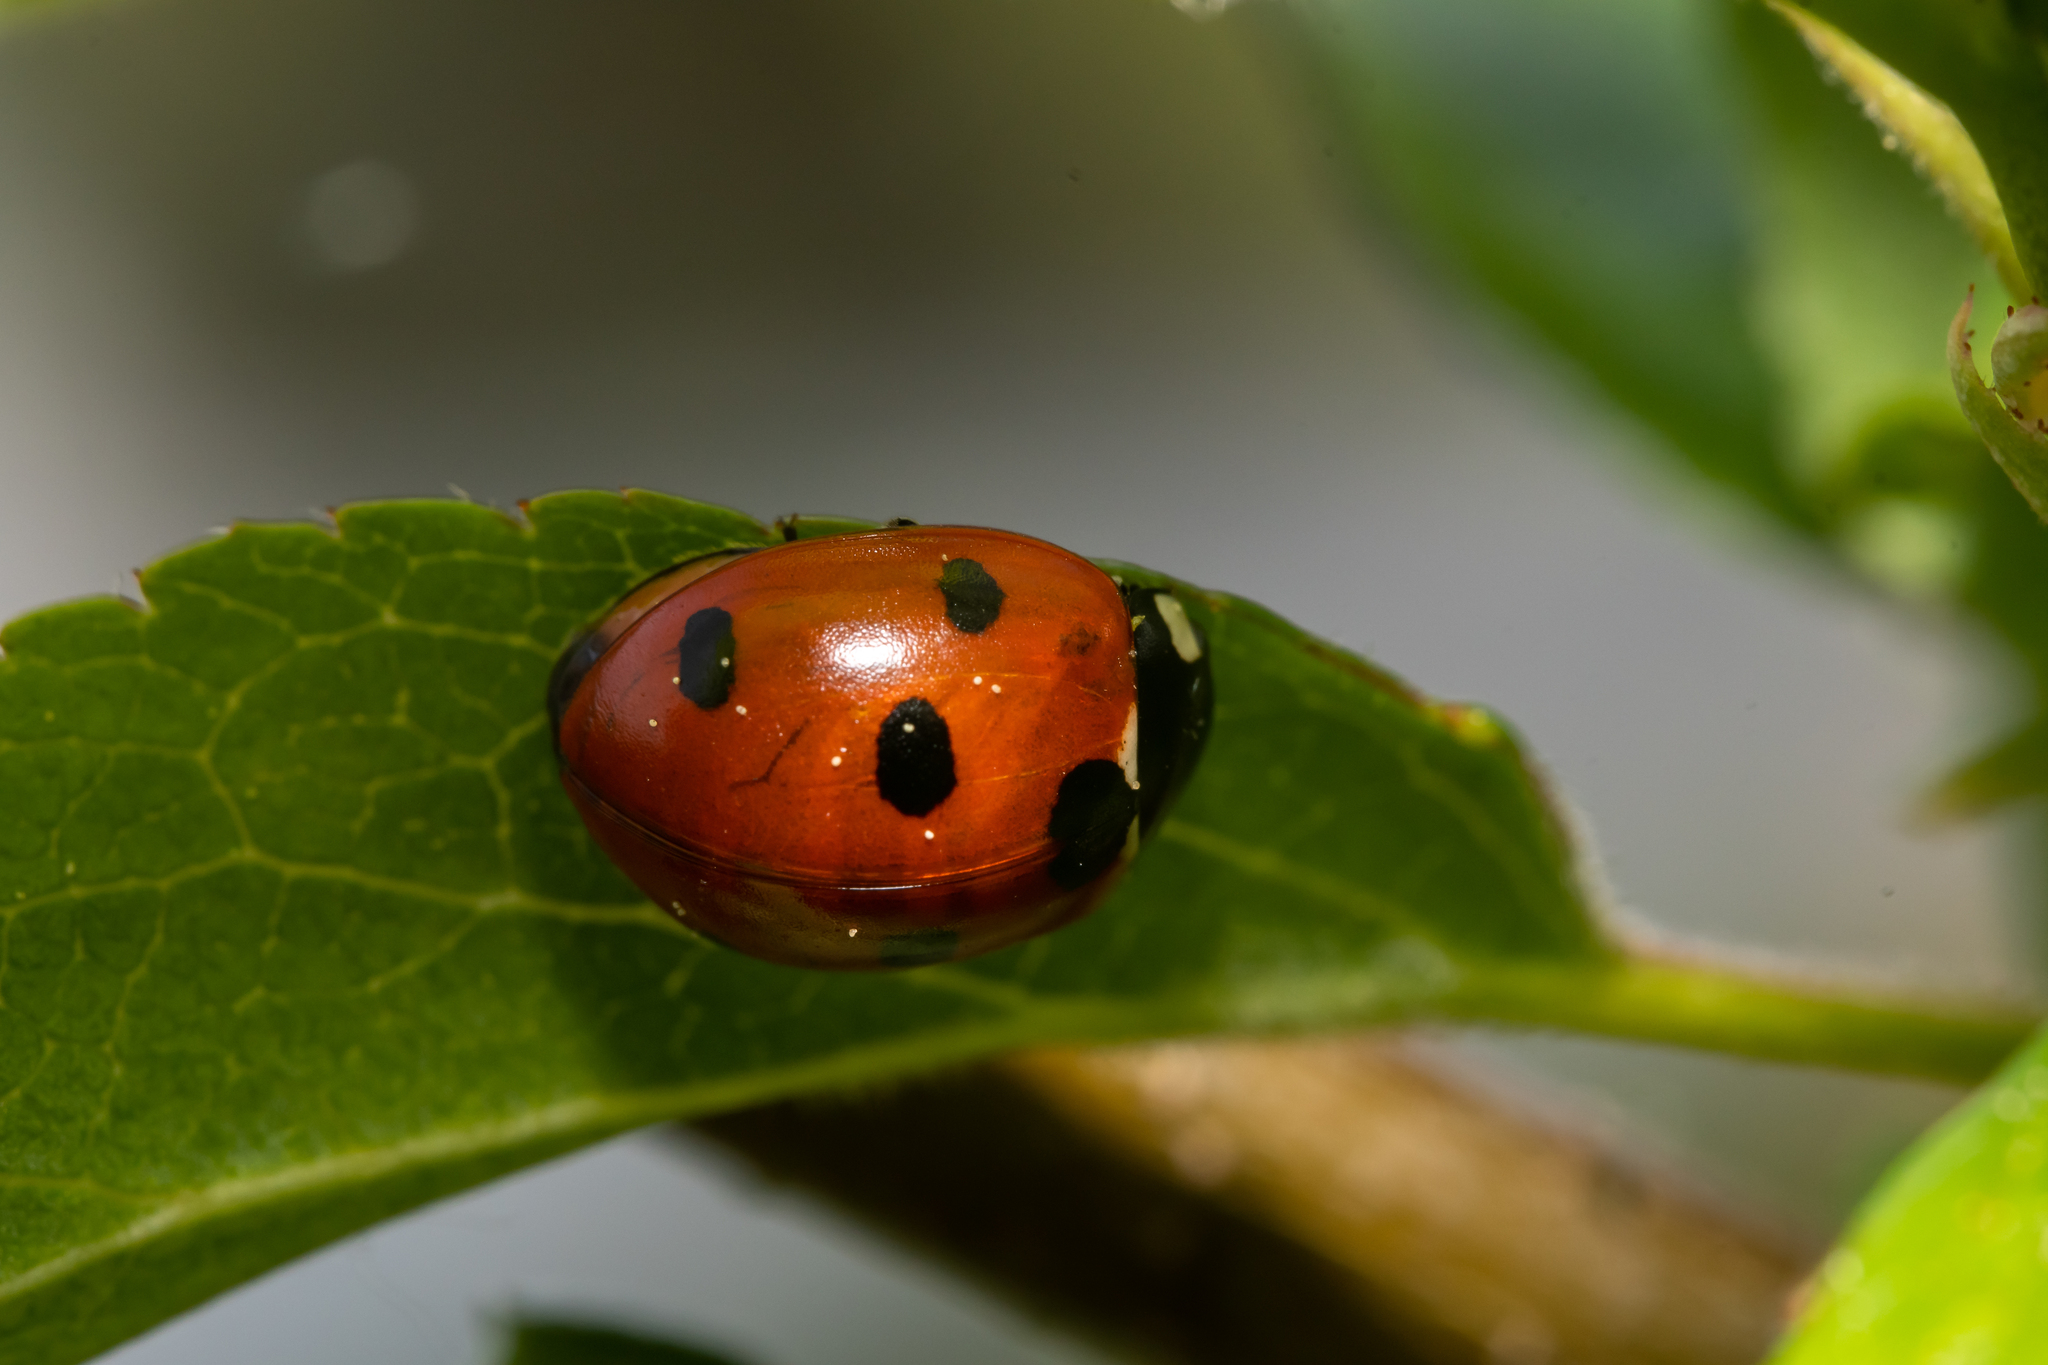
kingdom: Animalia
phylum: Arthropoda
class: Insecta
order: Coleoptera
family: Coccinellidae
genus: Coccinella
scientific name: Coccinella septempunctata
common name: Sevenspotted lady beetle
